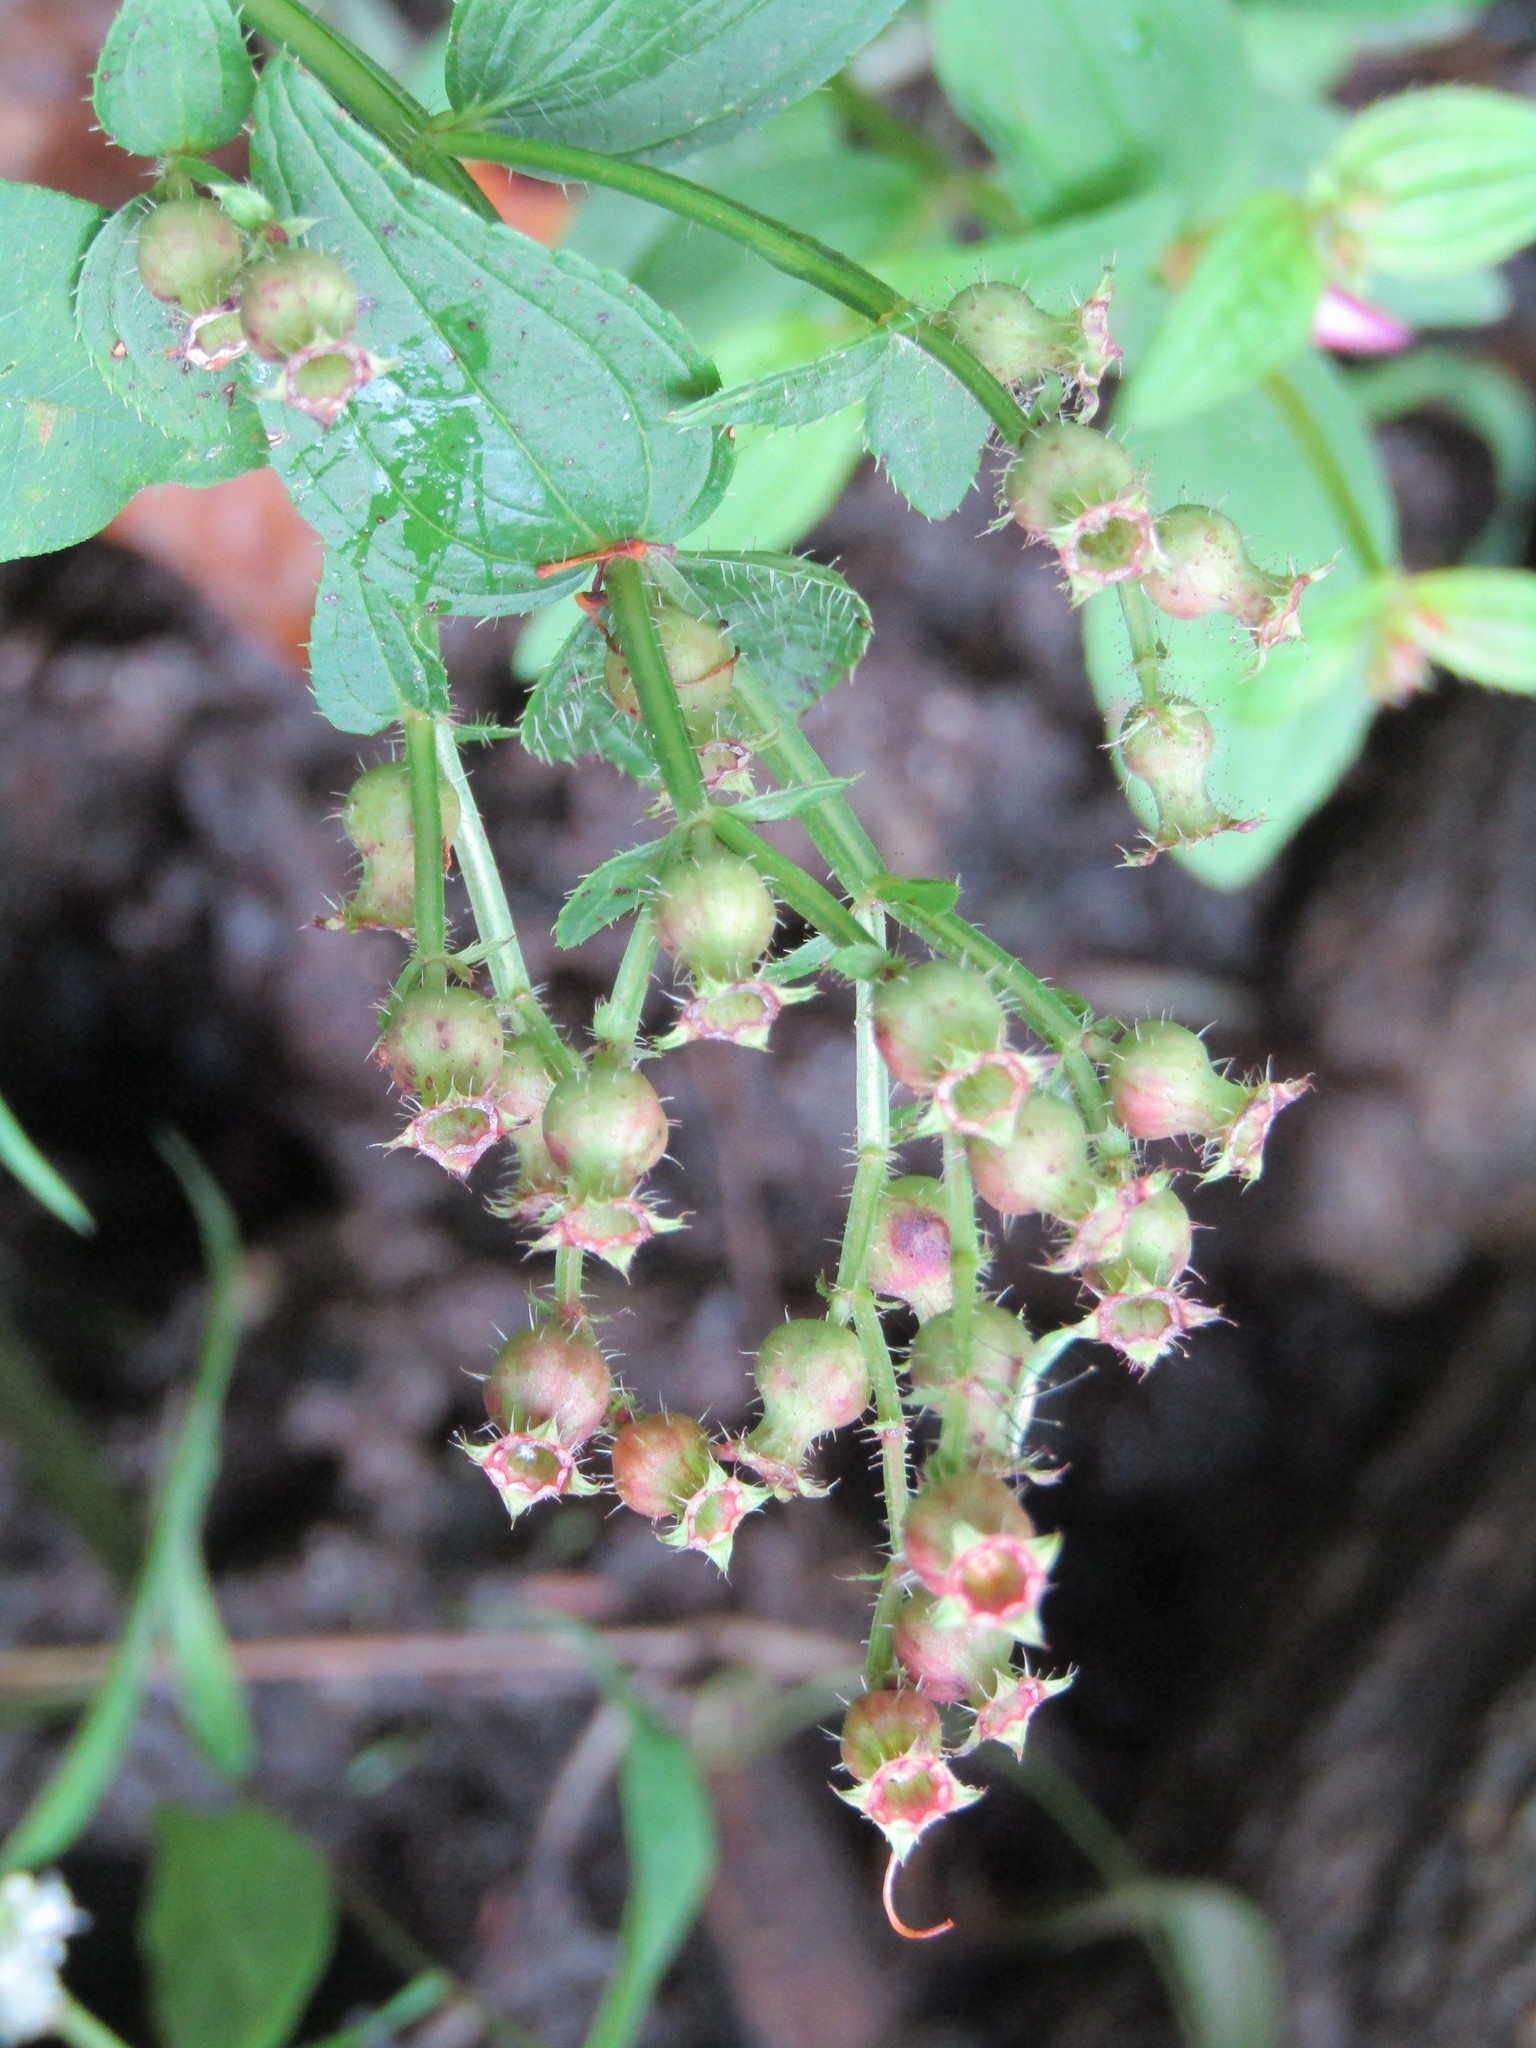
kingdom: Plantae
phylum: Tracheophyta
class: Magnoliopsida
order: Myrtales
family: Melastomataceae
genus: Rhexia
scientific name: Rhexia virginica
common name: Common meadow beauty
